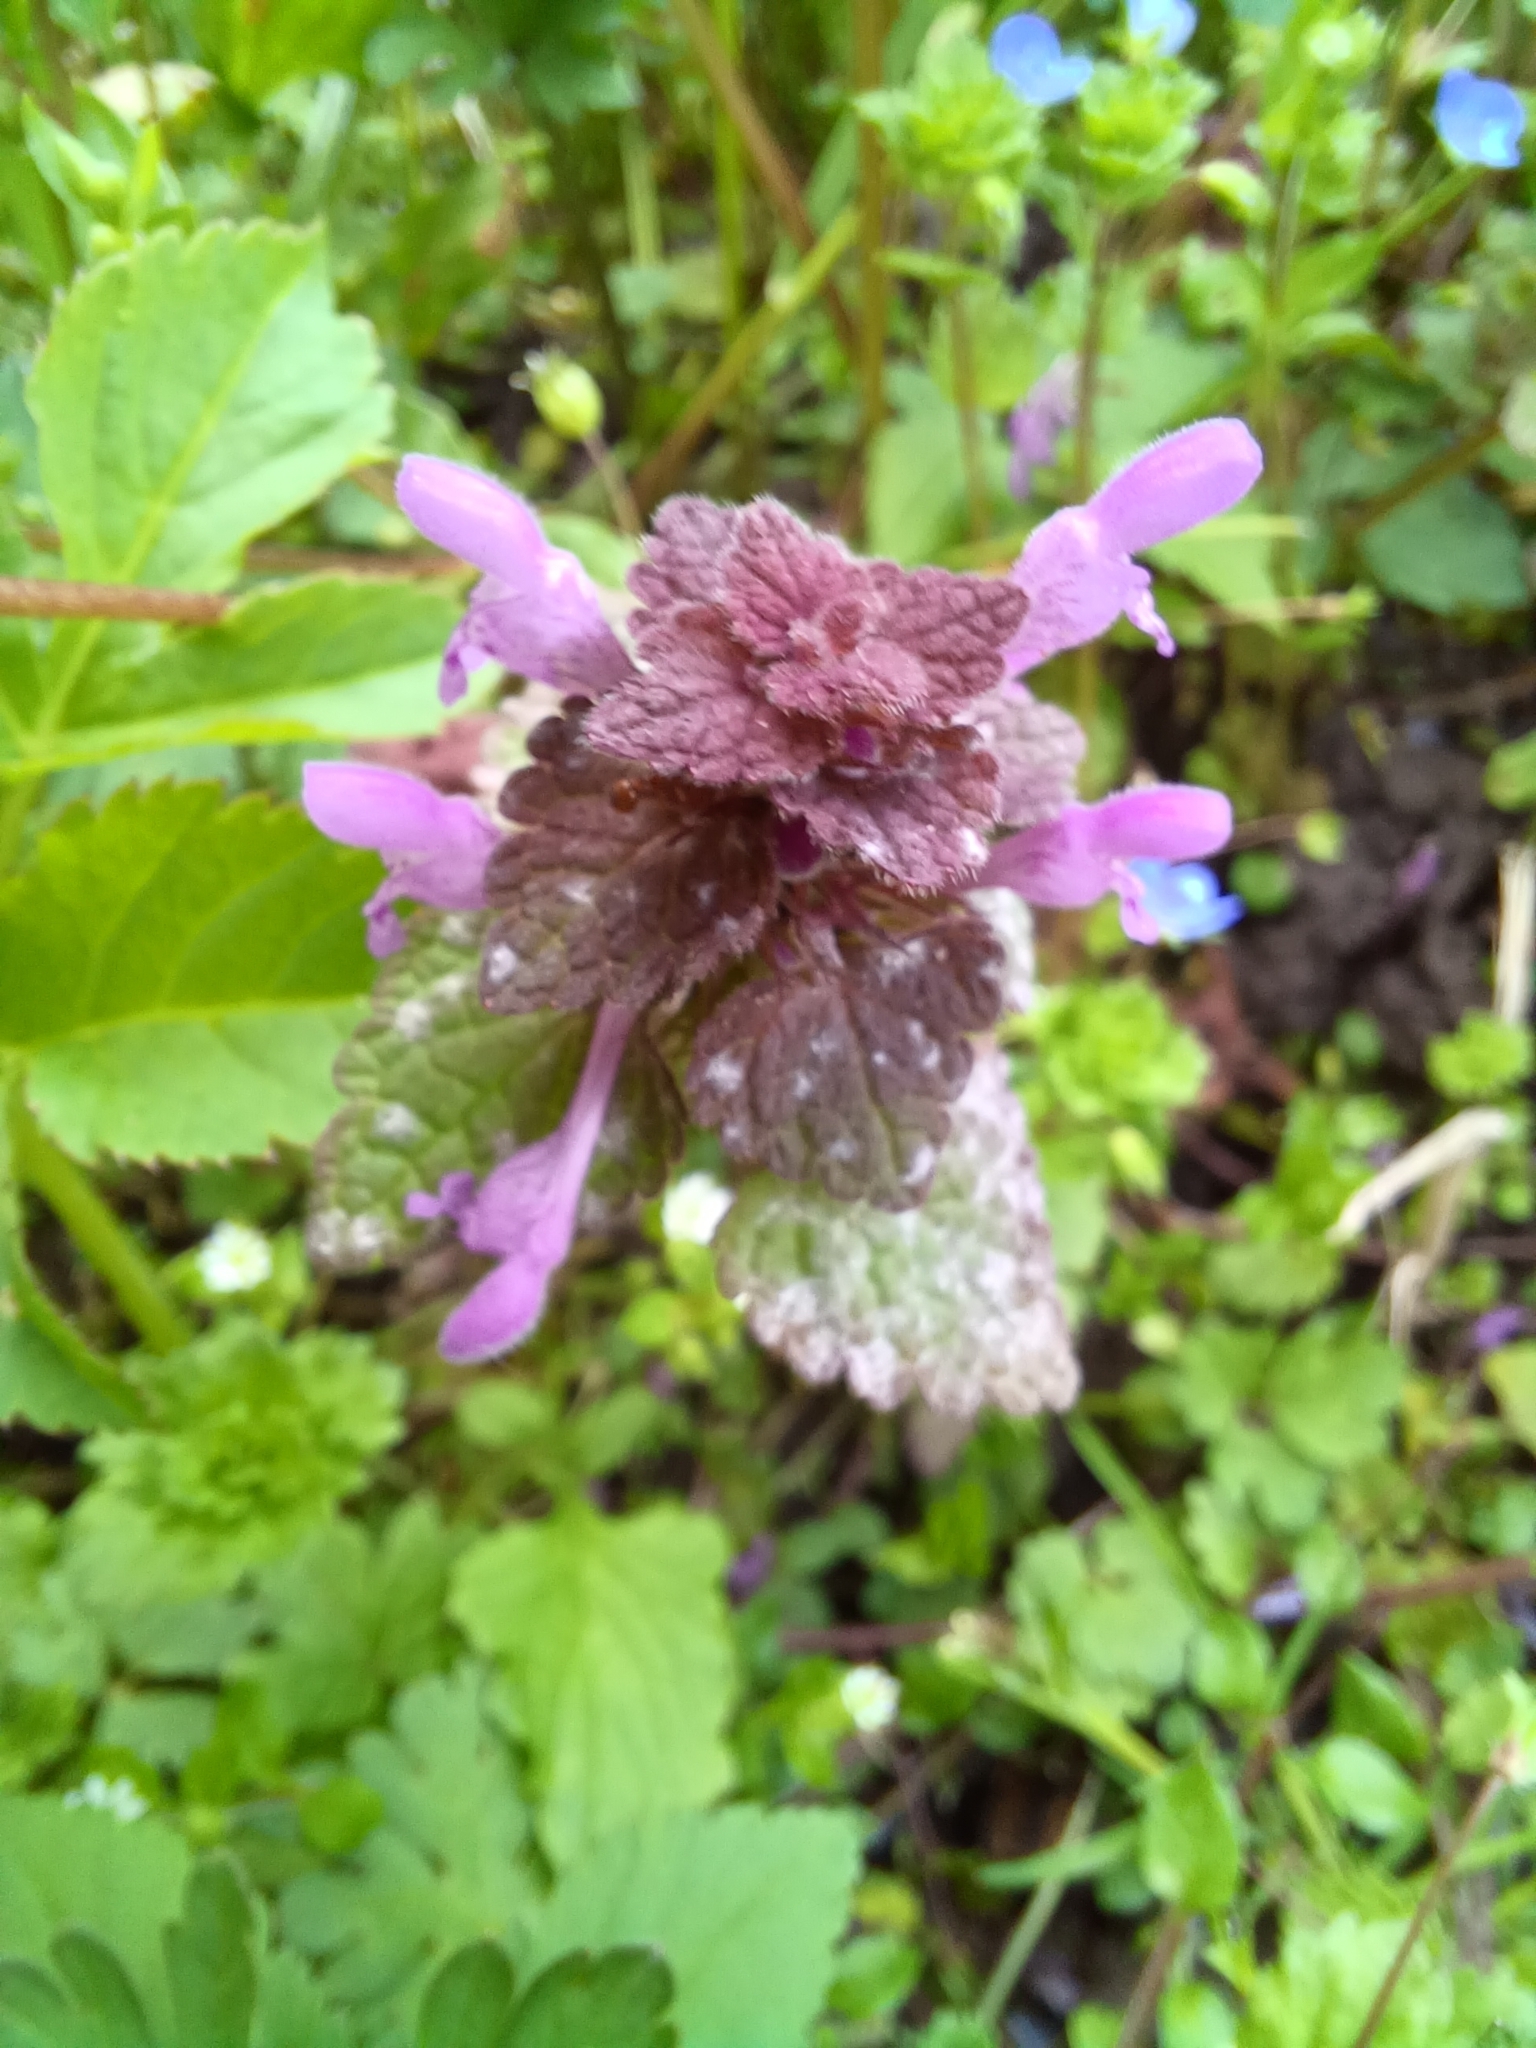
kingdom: Plantae
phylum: Tracheophyta
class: Magnoliopsida
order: Lamiales
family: Lamiaceae
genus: Lamium
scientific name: Lamium purpureum
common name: Red dead-nettle
